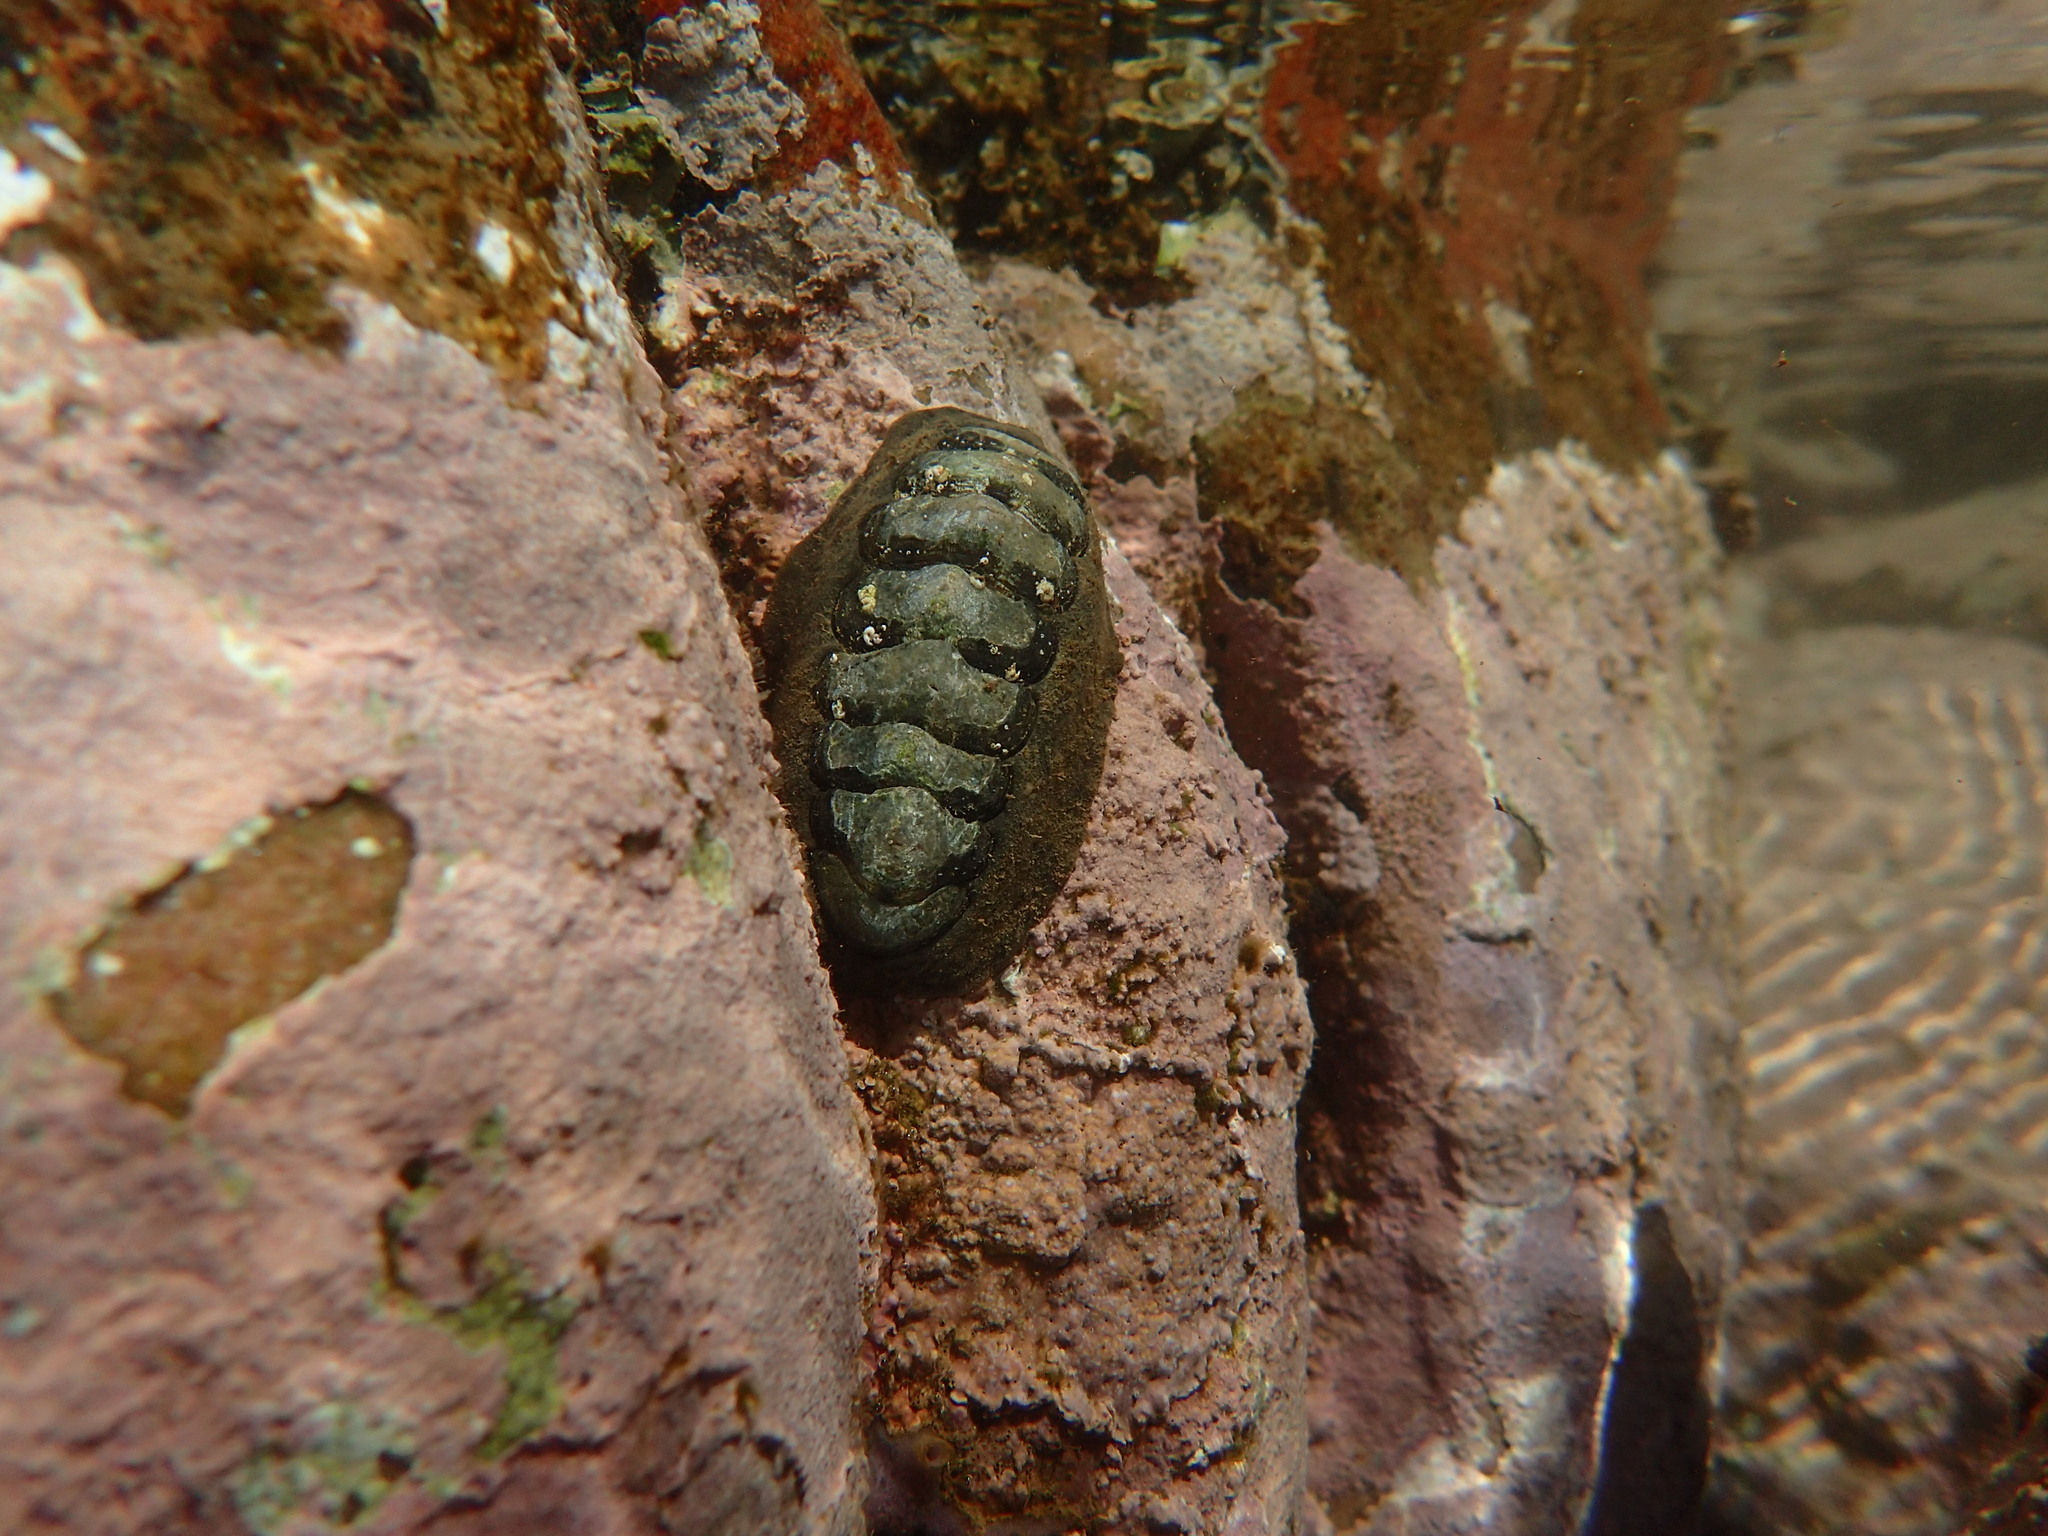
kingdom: Animalia
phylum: Mollusca
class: Polyplacophora
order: Chitonida
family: Chitonidae
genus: Onithochiton
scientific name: Onithochiton literatus
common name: Black chiton
